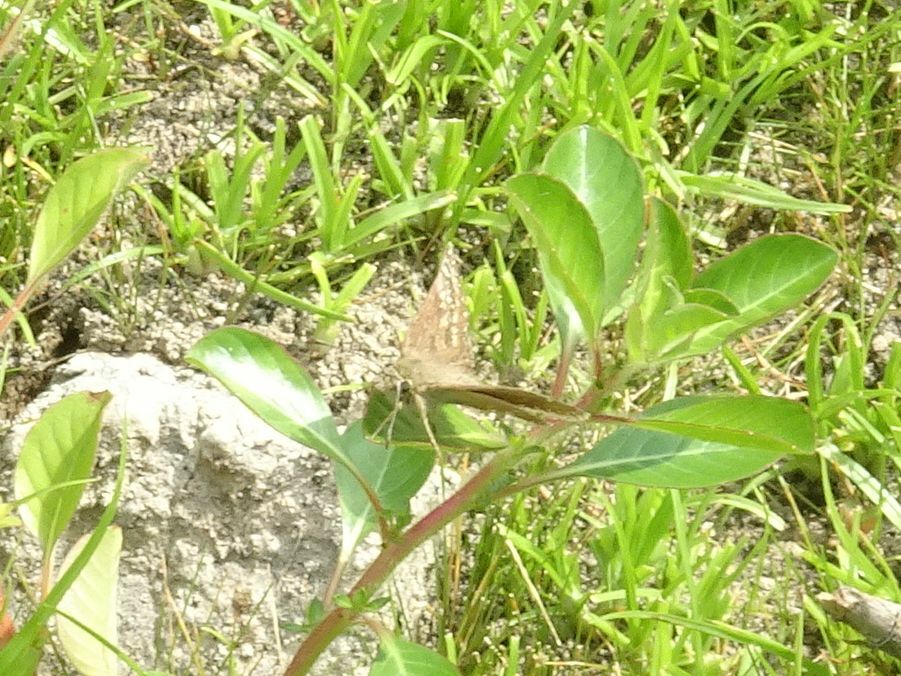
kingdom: Animalia
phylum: Arthropoda
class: Insecta
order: Lepidoptera
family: Hesperiidae
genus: Erynnis
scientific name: Erynnis tages
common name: Dingy skipper
